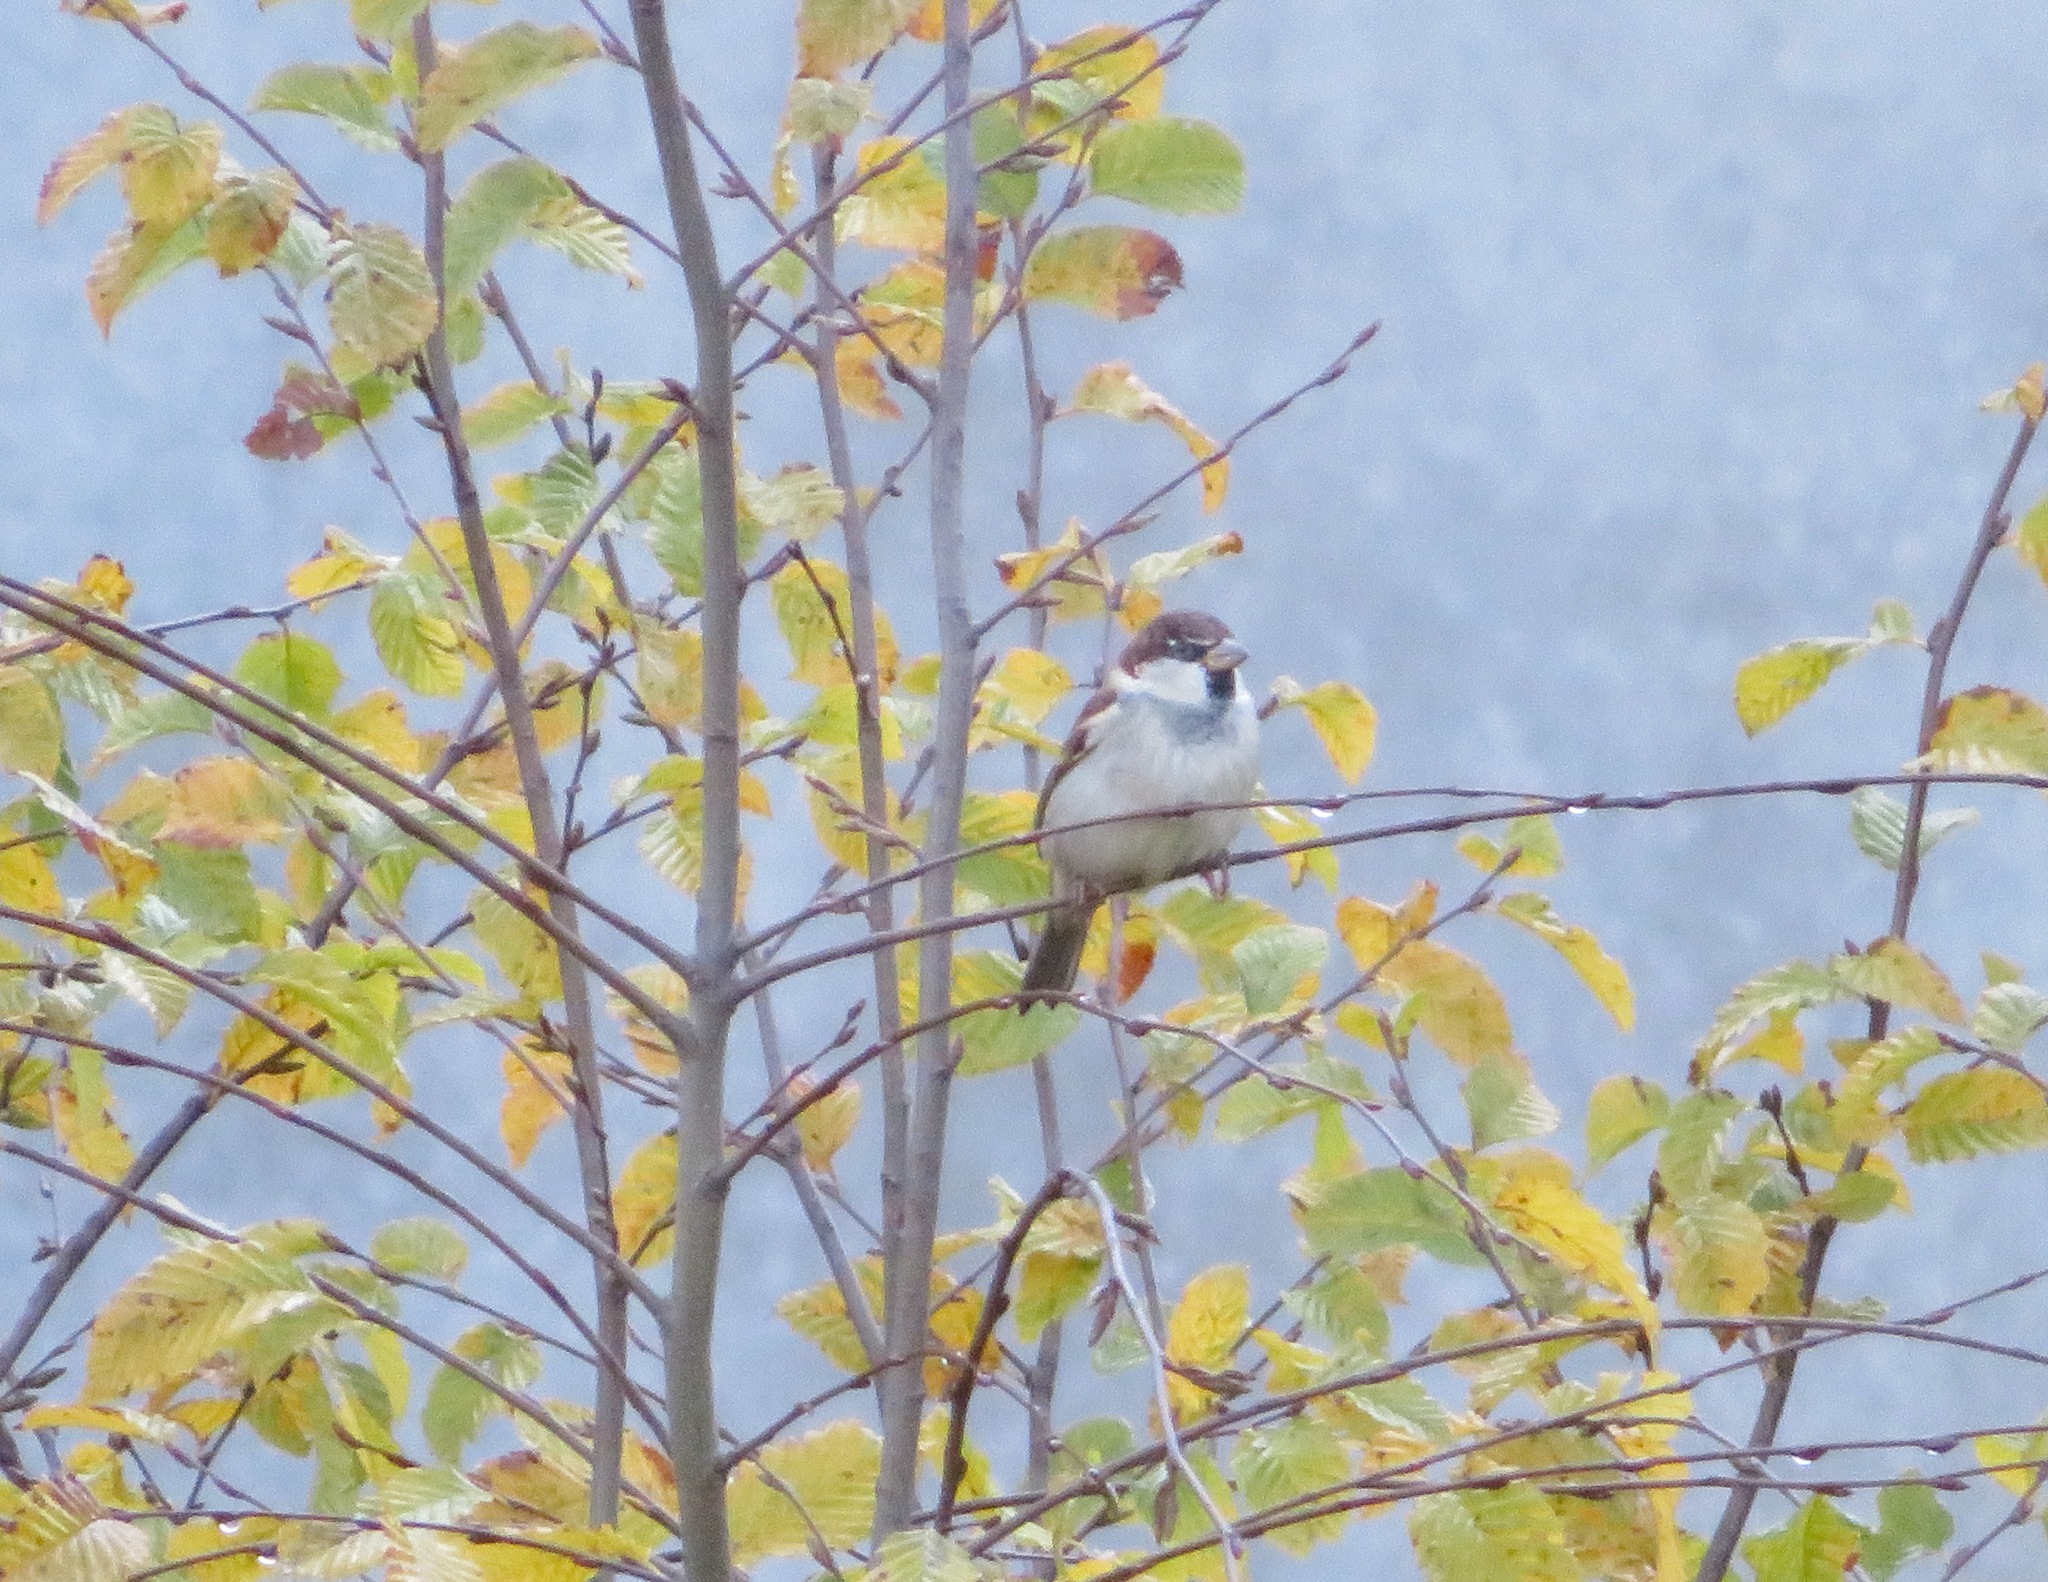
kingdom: Animalia
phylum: Chordata
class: Aves
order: Passeriformes
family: Passeridae
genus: Passer
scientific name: Passer italiae
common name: Italian sparrow
